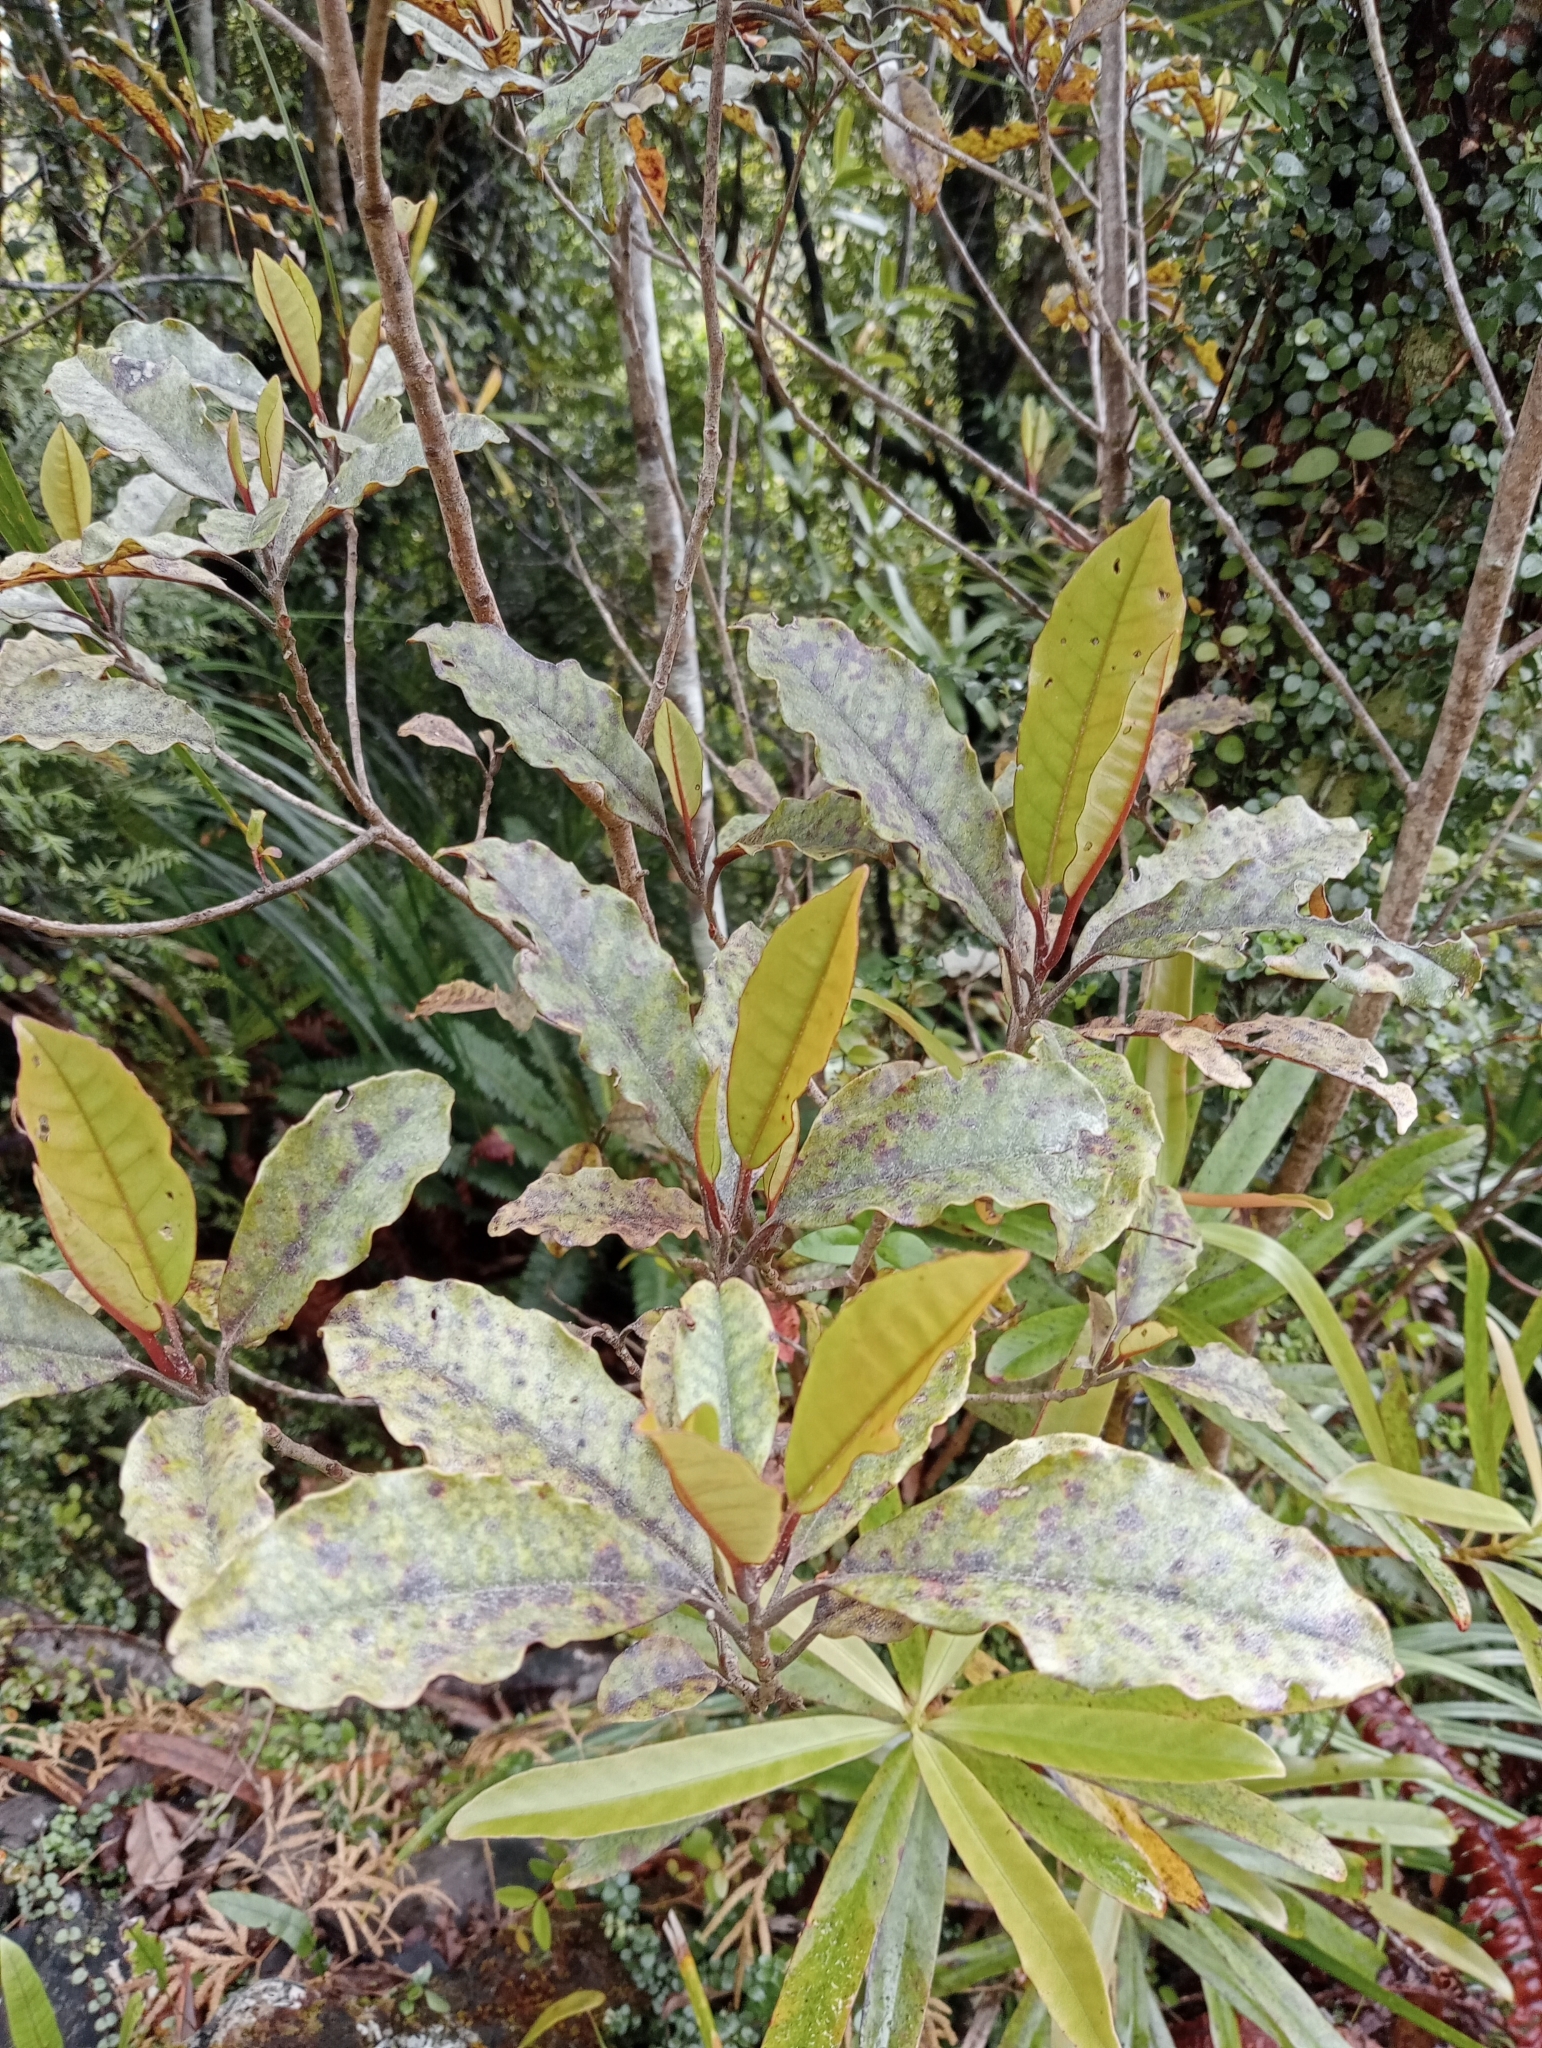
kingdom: Plantae
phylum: Tracheophyta
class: Magnoliopsida
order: Paracryphiales
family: Paracryphiaceae
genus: Quintinia
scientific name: Quintinia serrata
